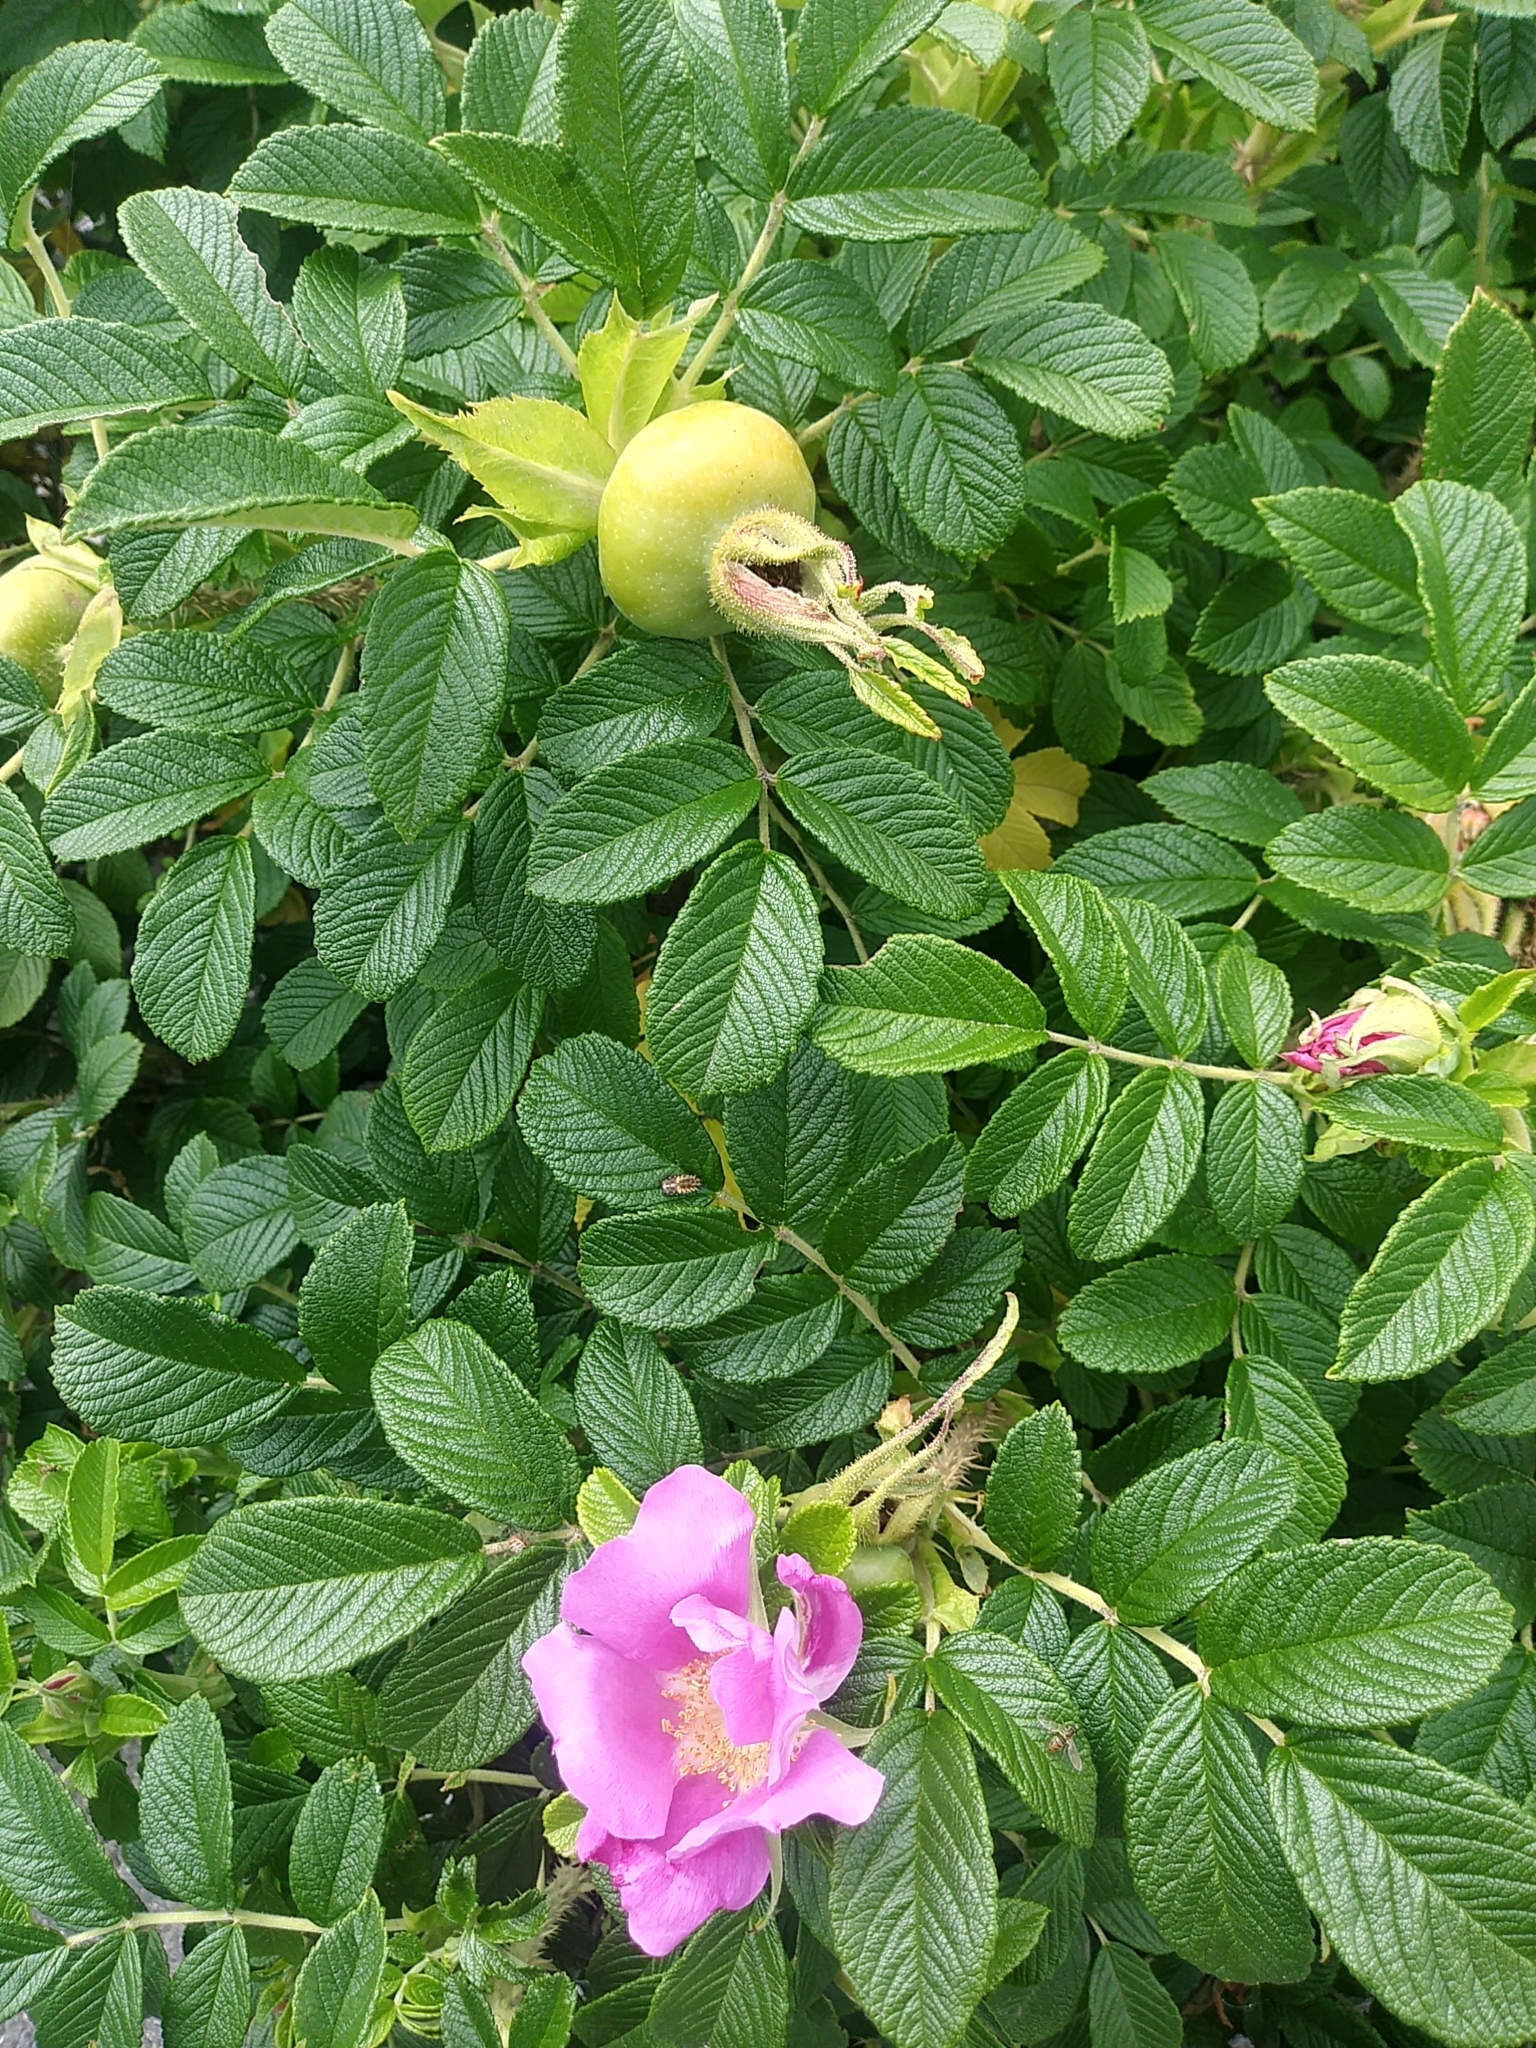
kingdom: Plantae
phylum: Tracheophyta
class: Magnoliopsida
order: Rosales
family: Rosaceae
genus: Rosa
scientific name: Rosa rugosa
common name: Japanese rose
